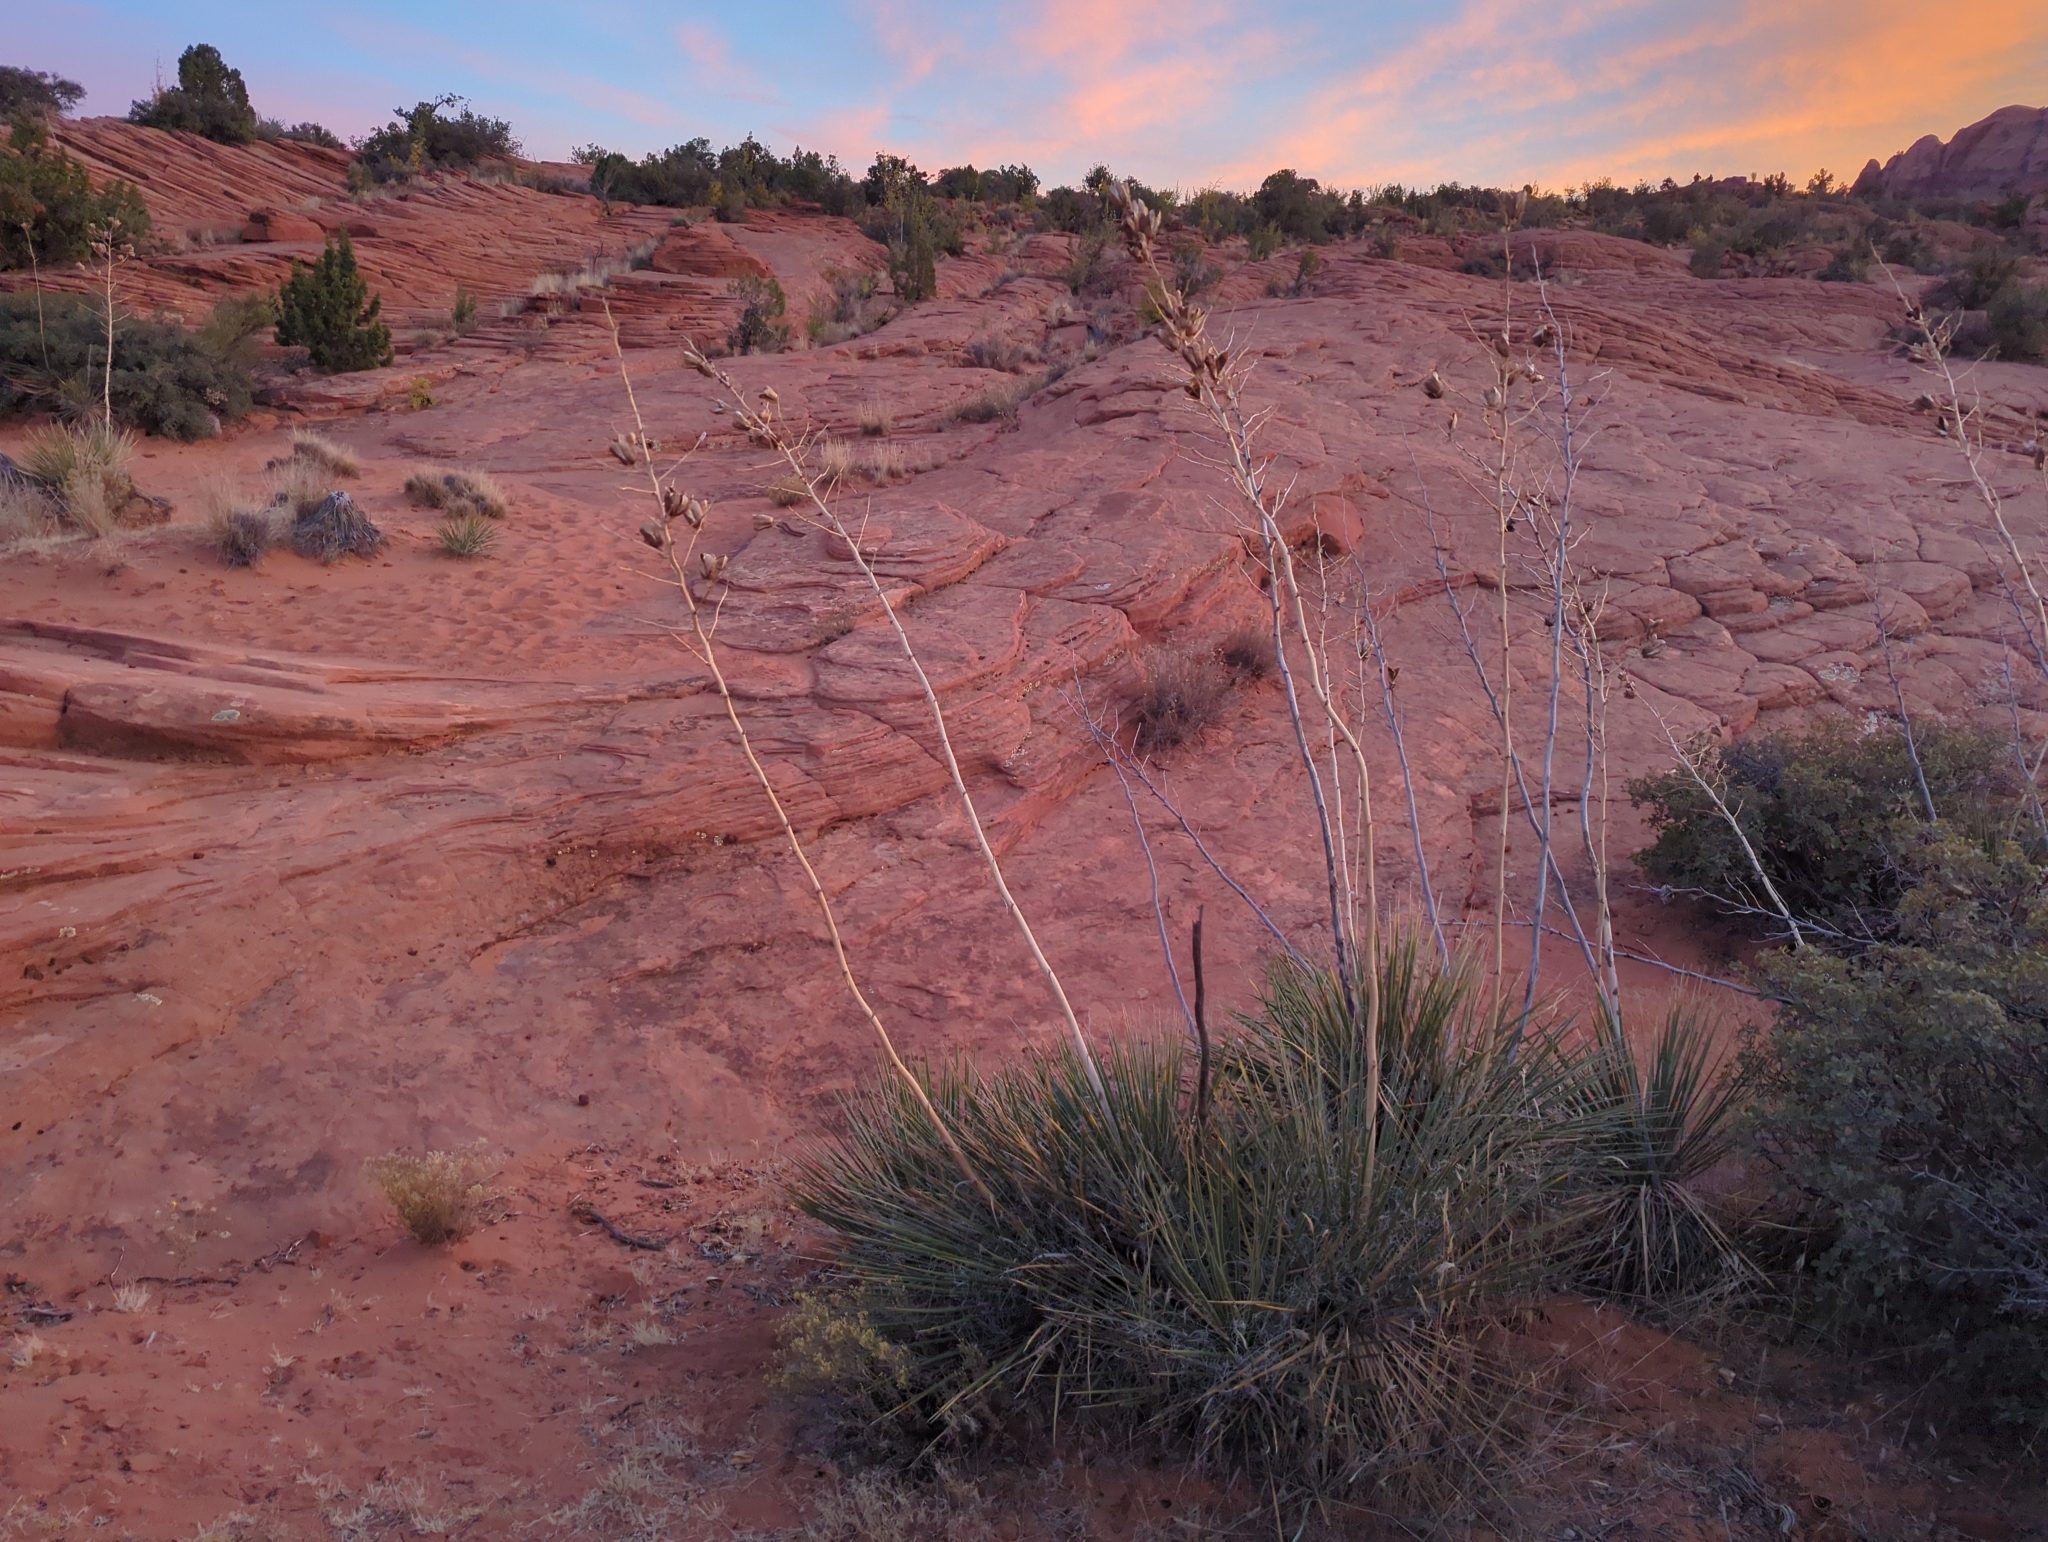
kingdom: Plantae
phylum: Tracheophyta
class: Liliopsida
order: Asparagales
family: Asparagaceae
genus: Yucca
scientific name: Yucca utahensis
